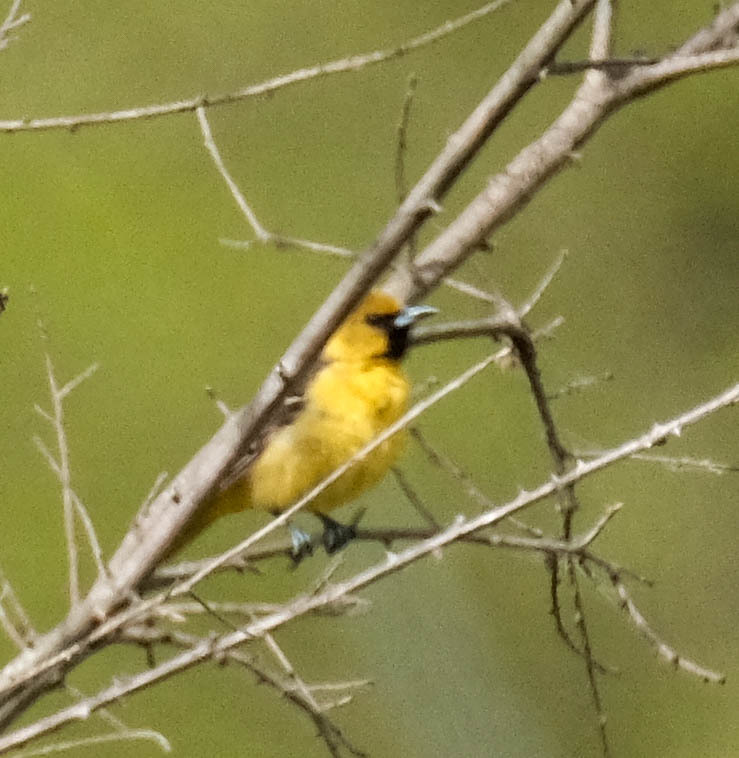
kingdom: Animalia
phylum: Chordata
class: Aves
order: Passeriformes
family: Icteridae
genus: Icterus
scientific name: Icterus spurius
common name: Orchard oriole
